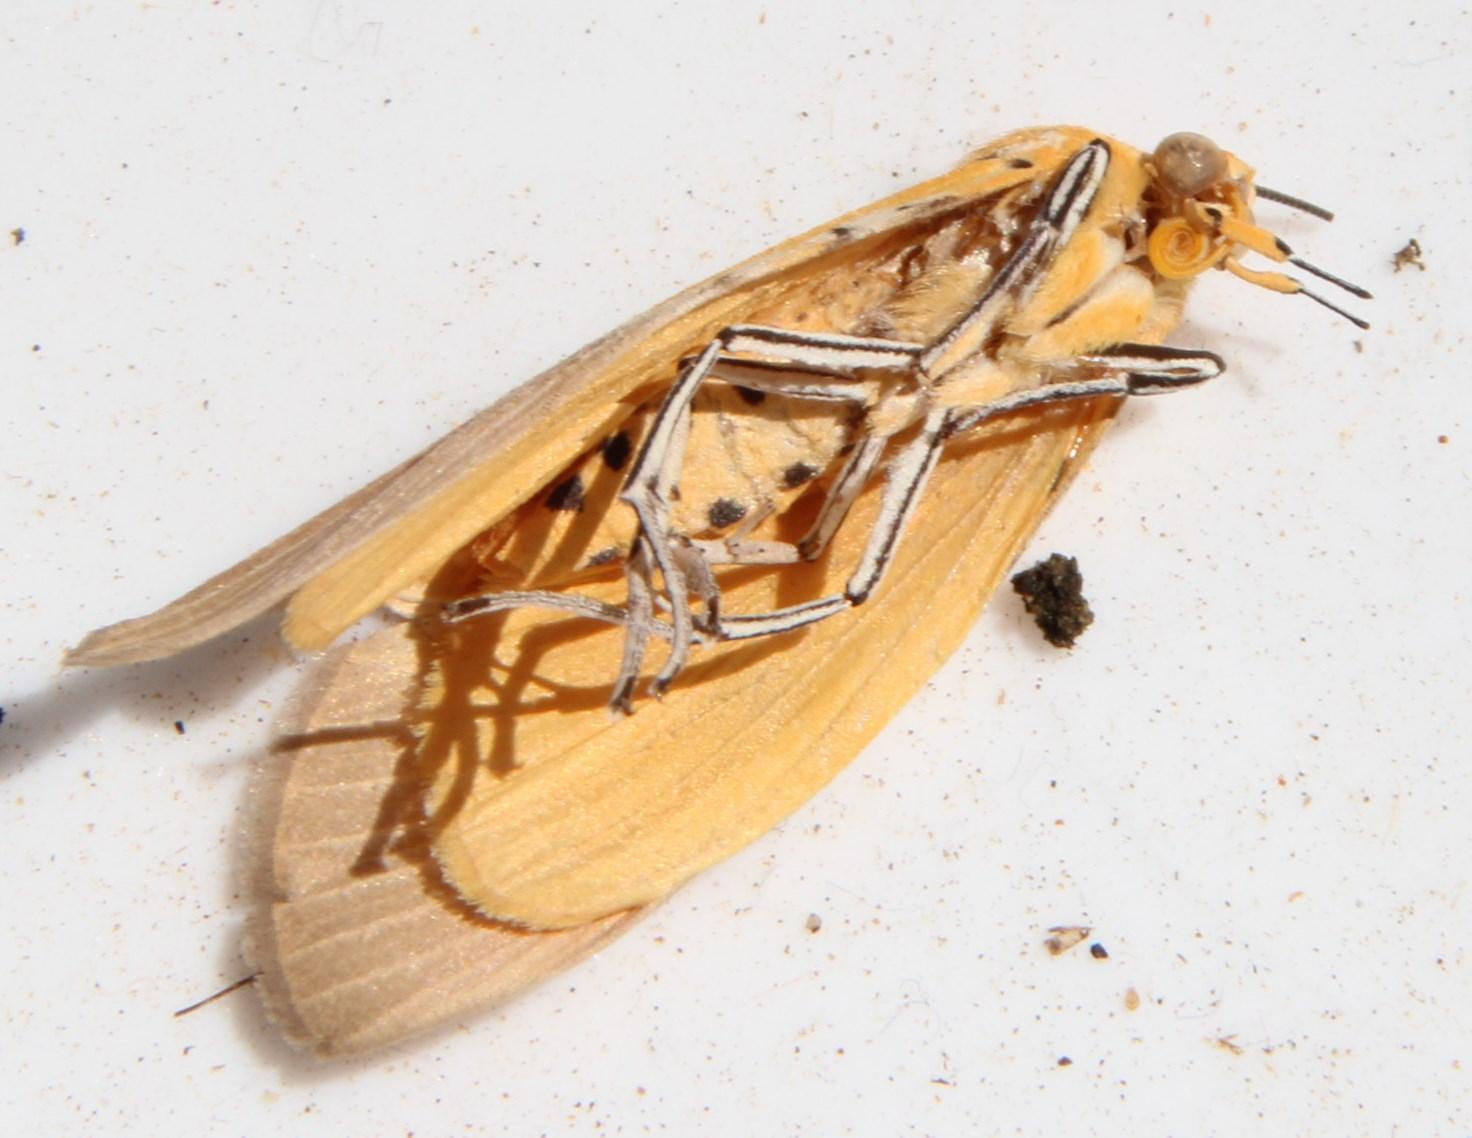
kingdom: Animalia
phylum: Arthropoda
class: Insecta
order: Lepidoptera
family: Erebidae
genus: Asota
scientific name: Asota speciosa
